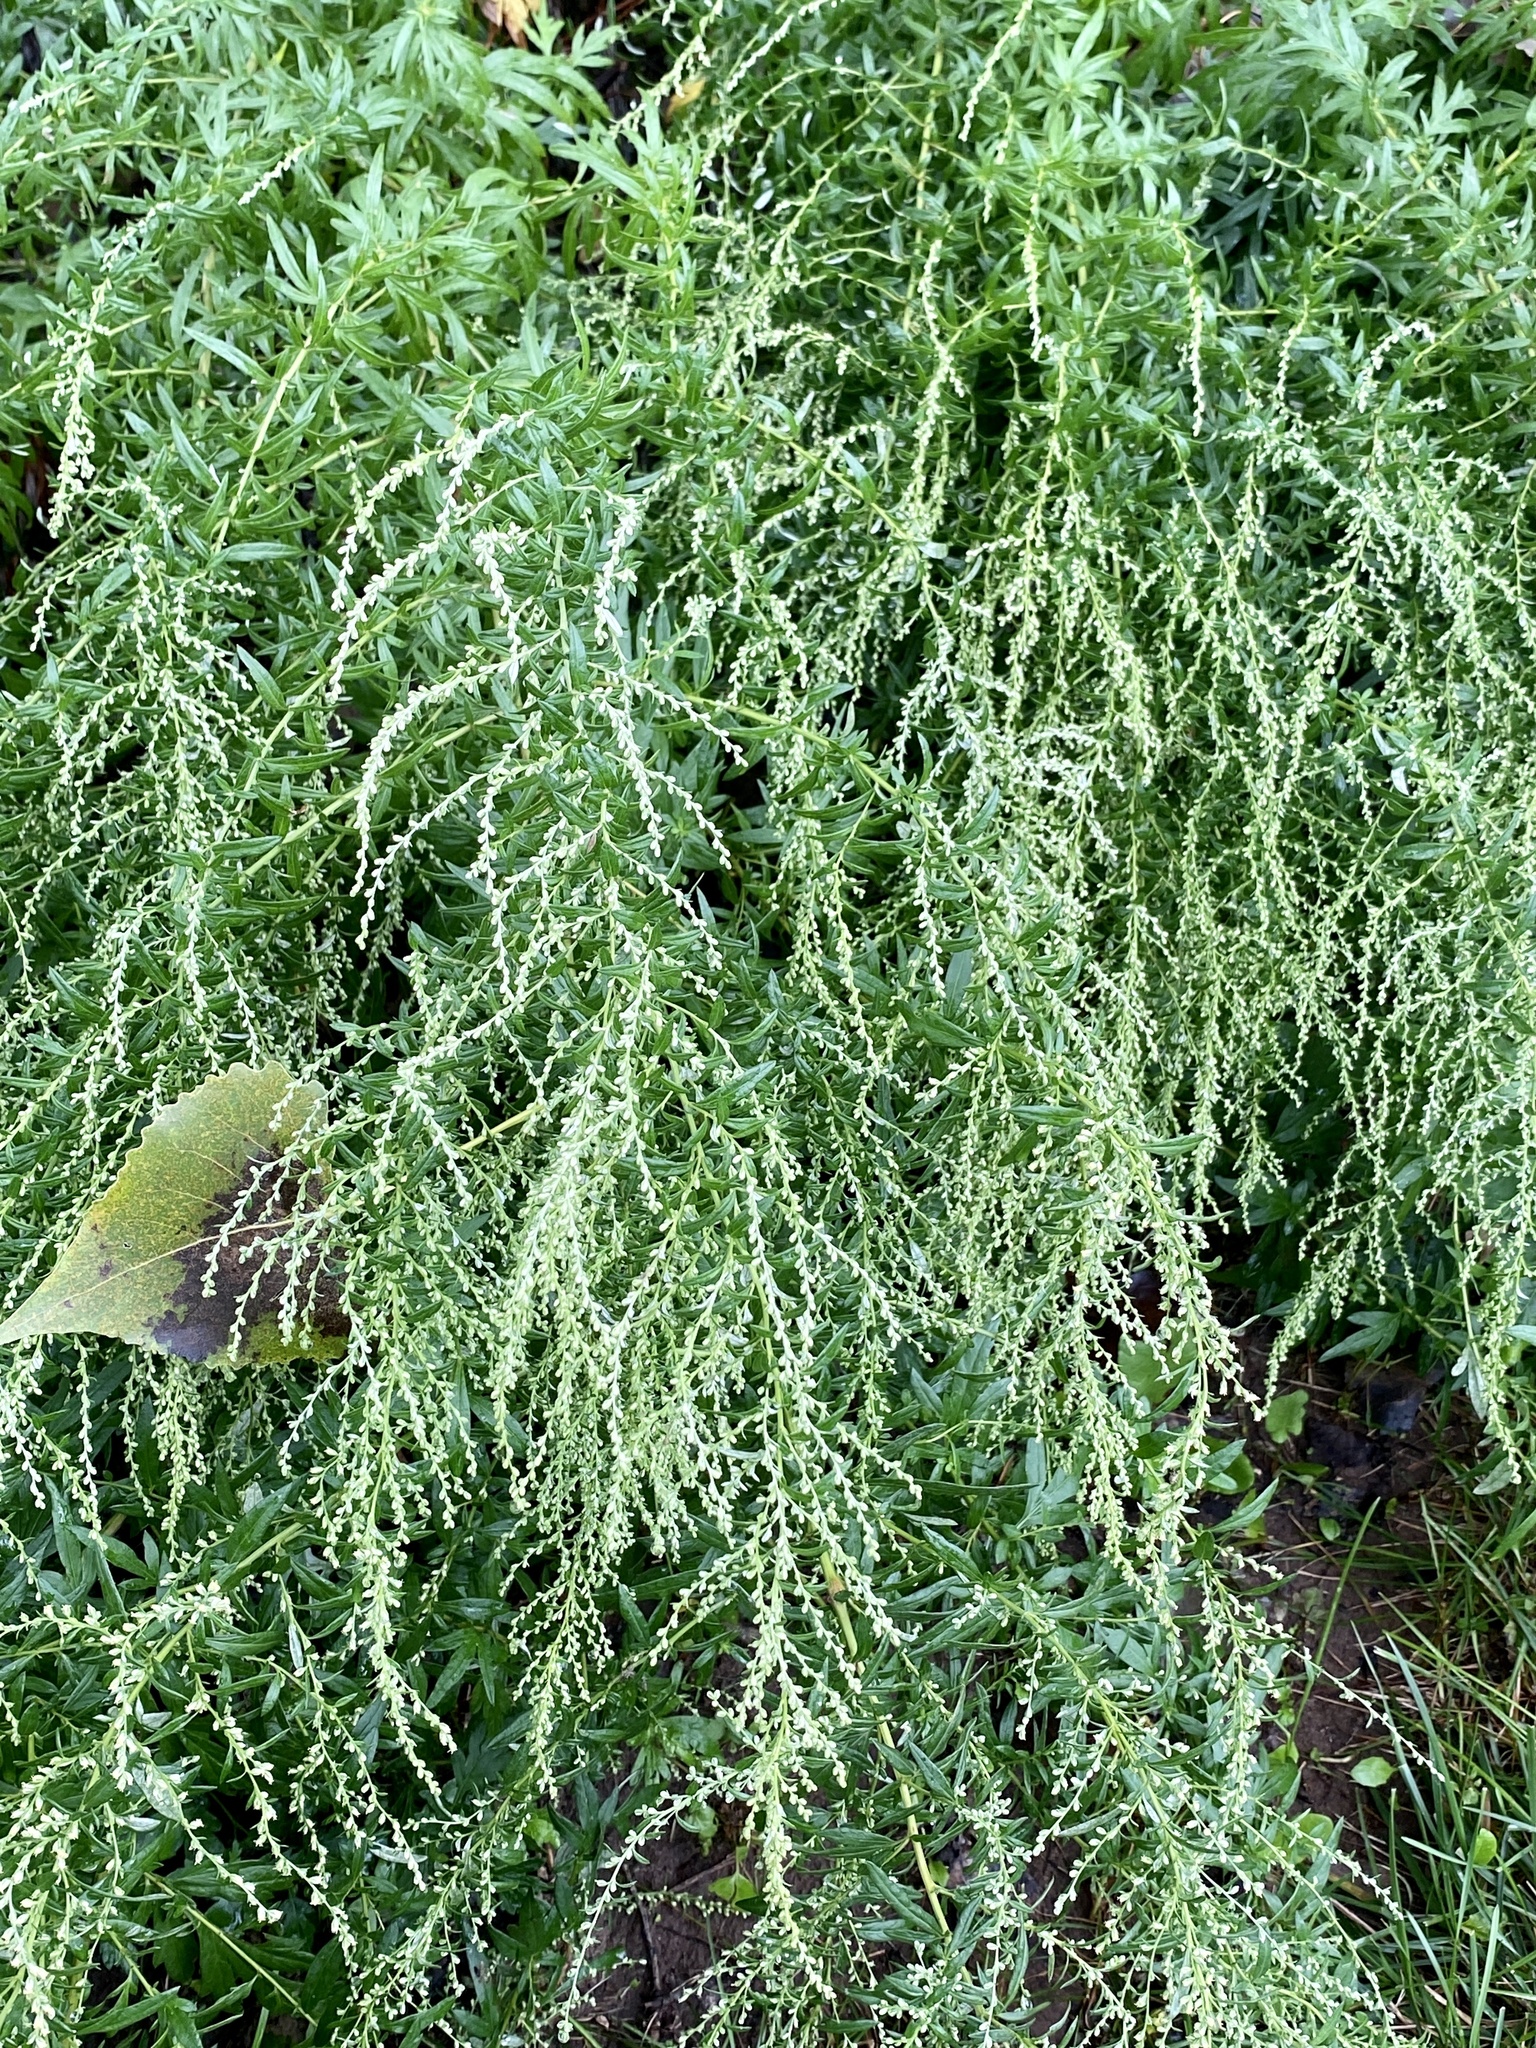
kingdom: Plantae
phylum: Tracheophyta
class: Magnoliopsida
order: Asterales
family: Asteraceae
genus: Artemisia
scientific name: Artemisia vulgaris
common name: Mugwort
